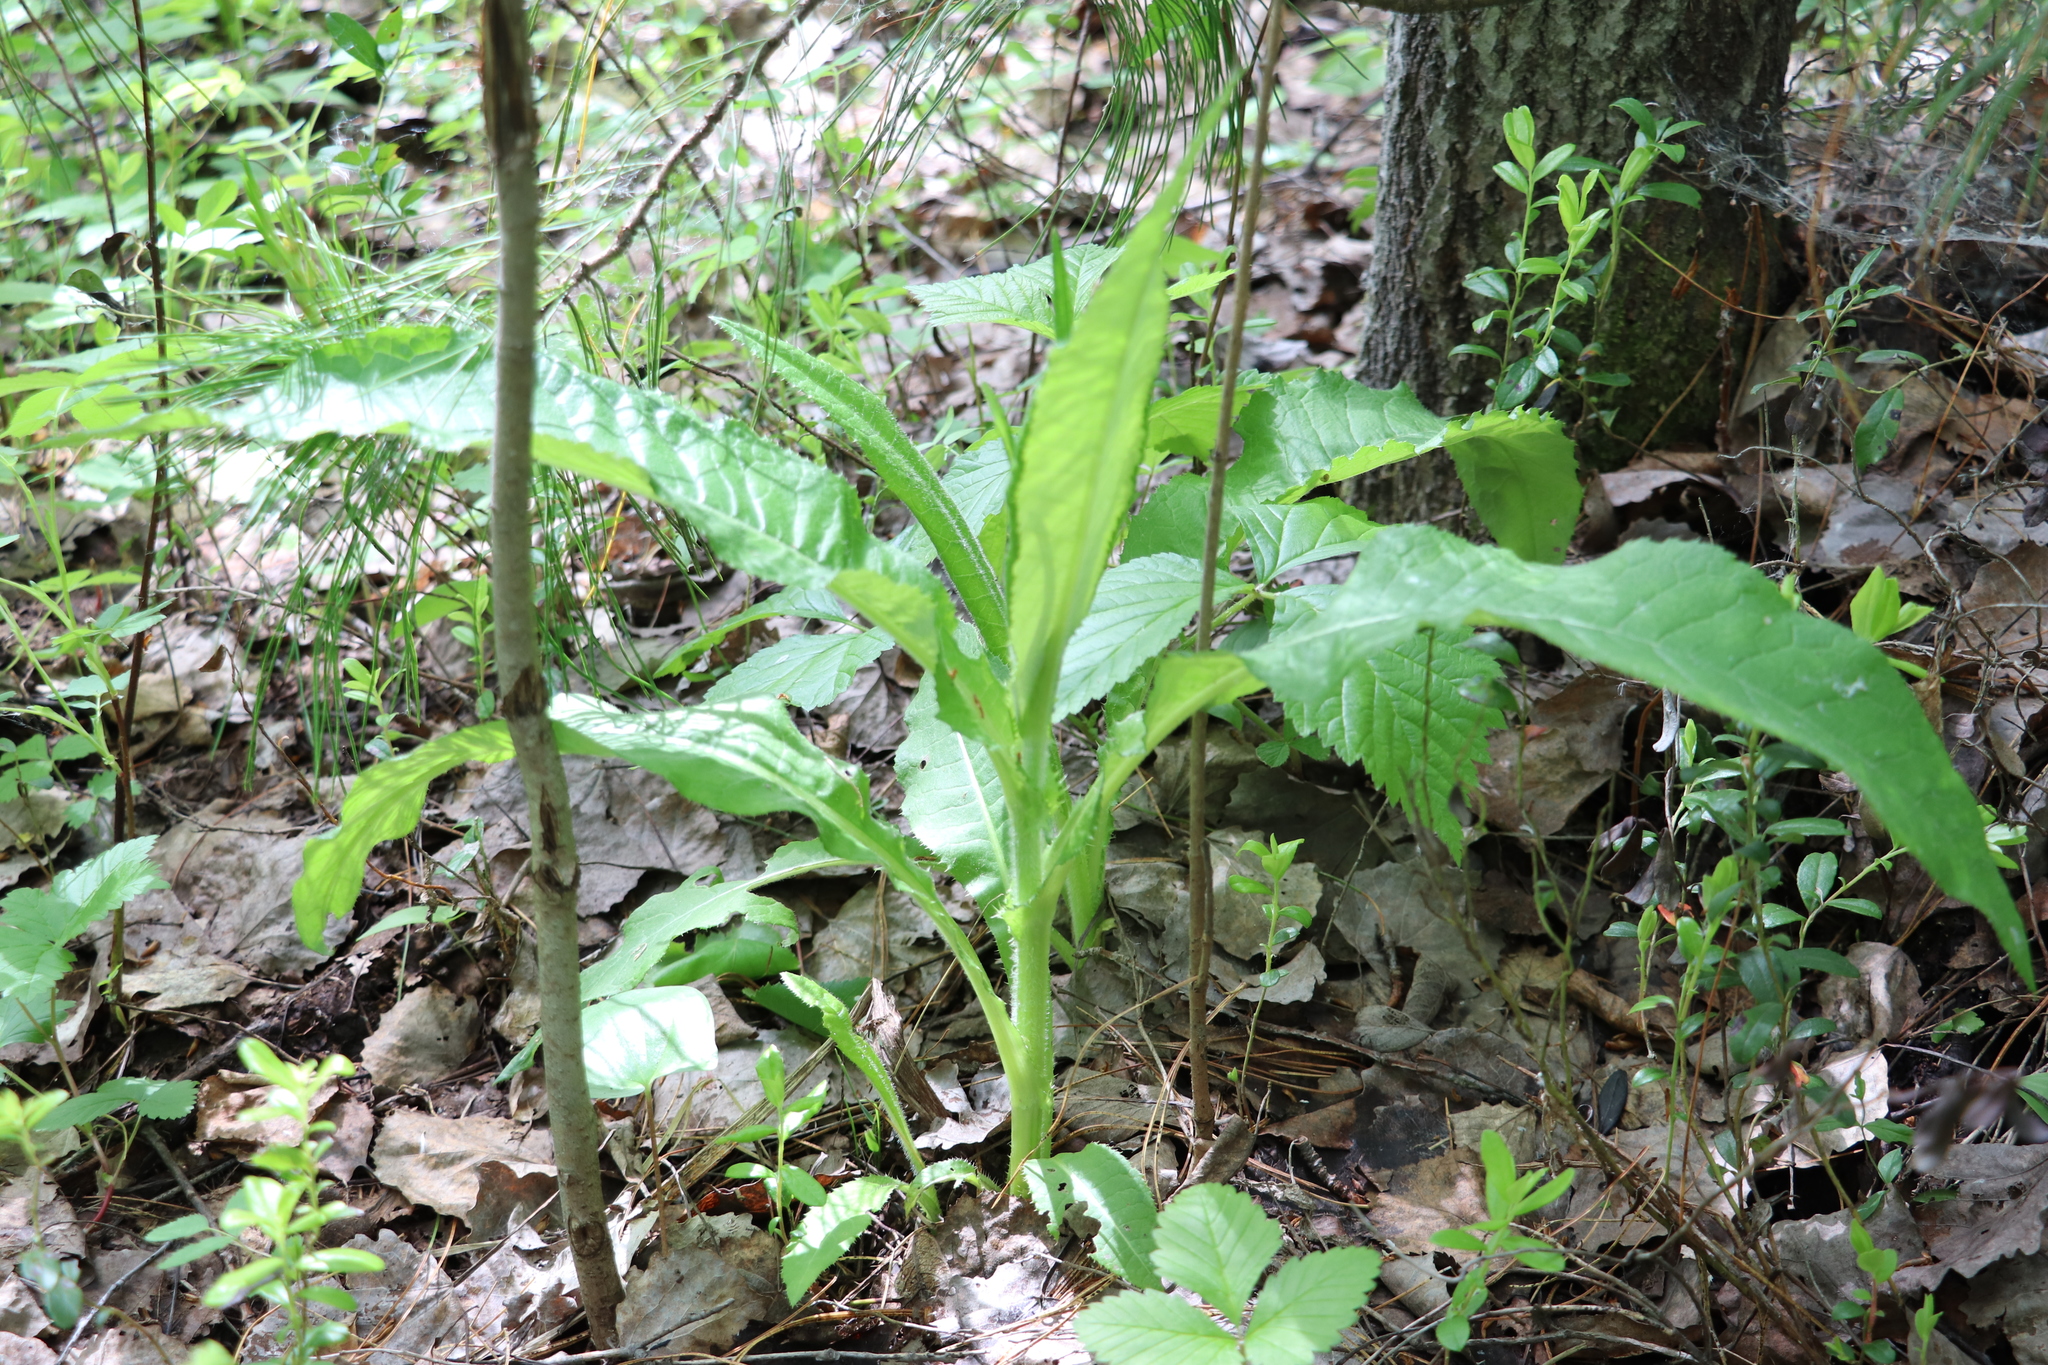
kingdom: Plantae
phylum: Tracheophyta
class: Magnoliopsida
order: Asterales
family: Asteraceae
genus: Cirsium
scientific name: Cirsium heterophyllum
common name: Melancholy thistle
